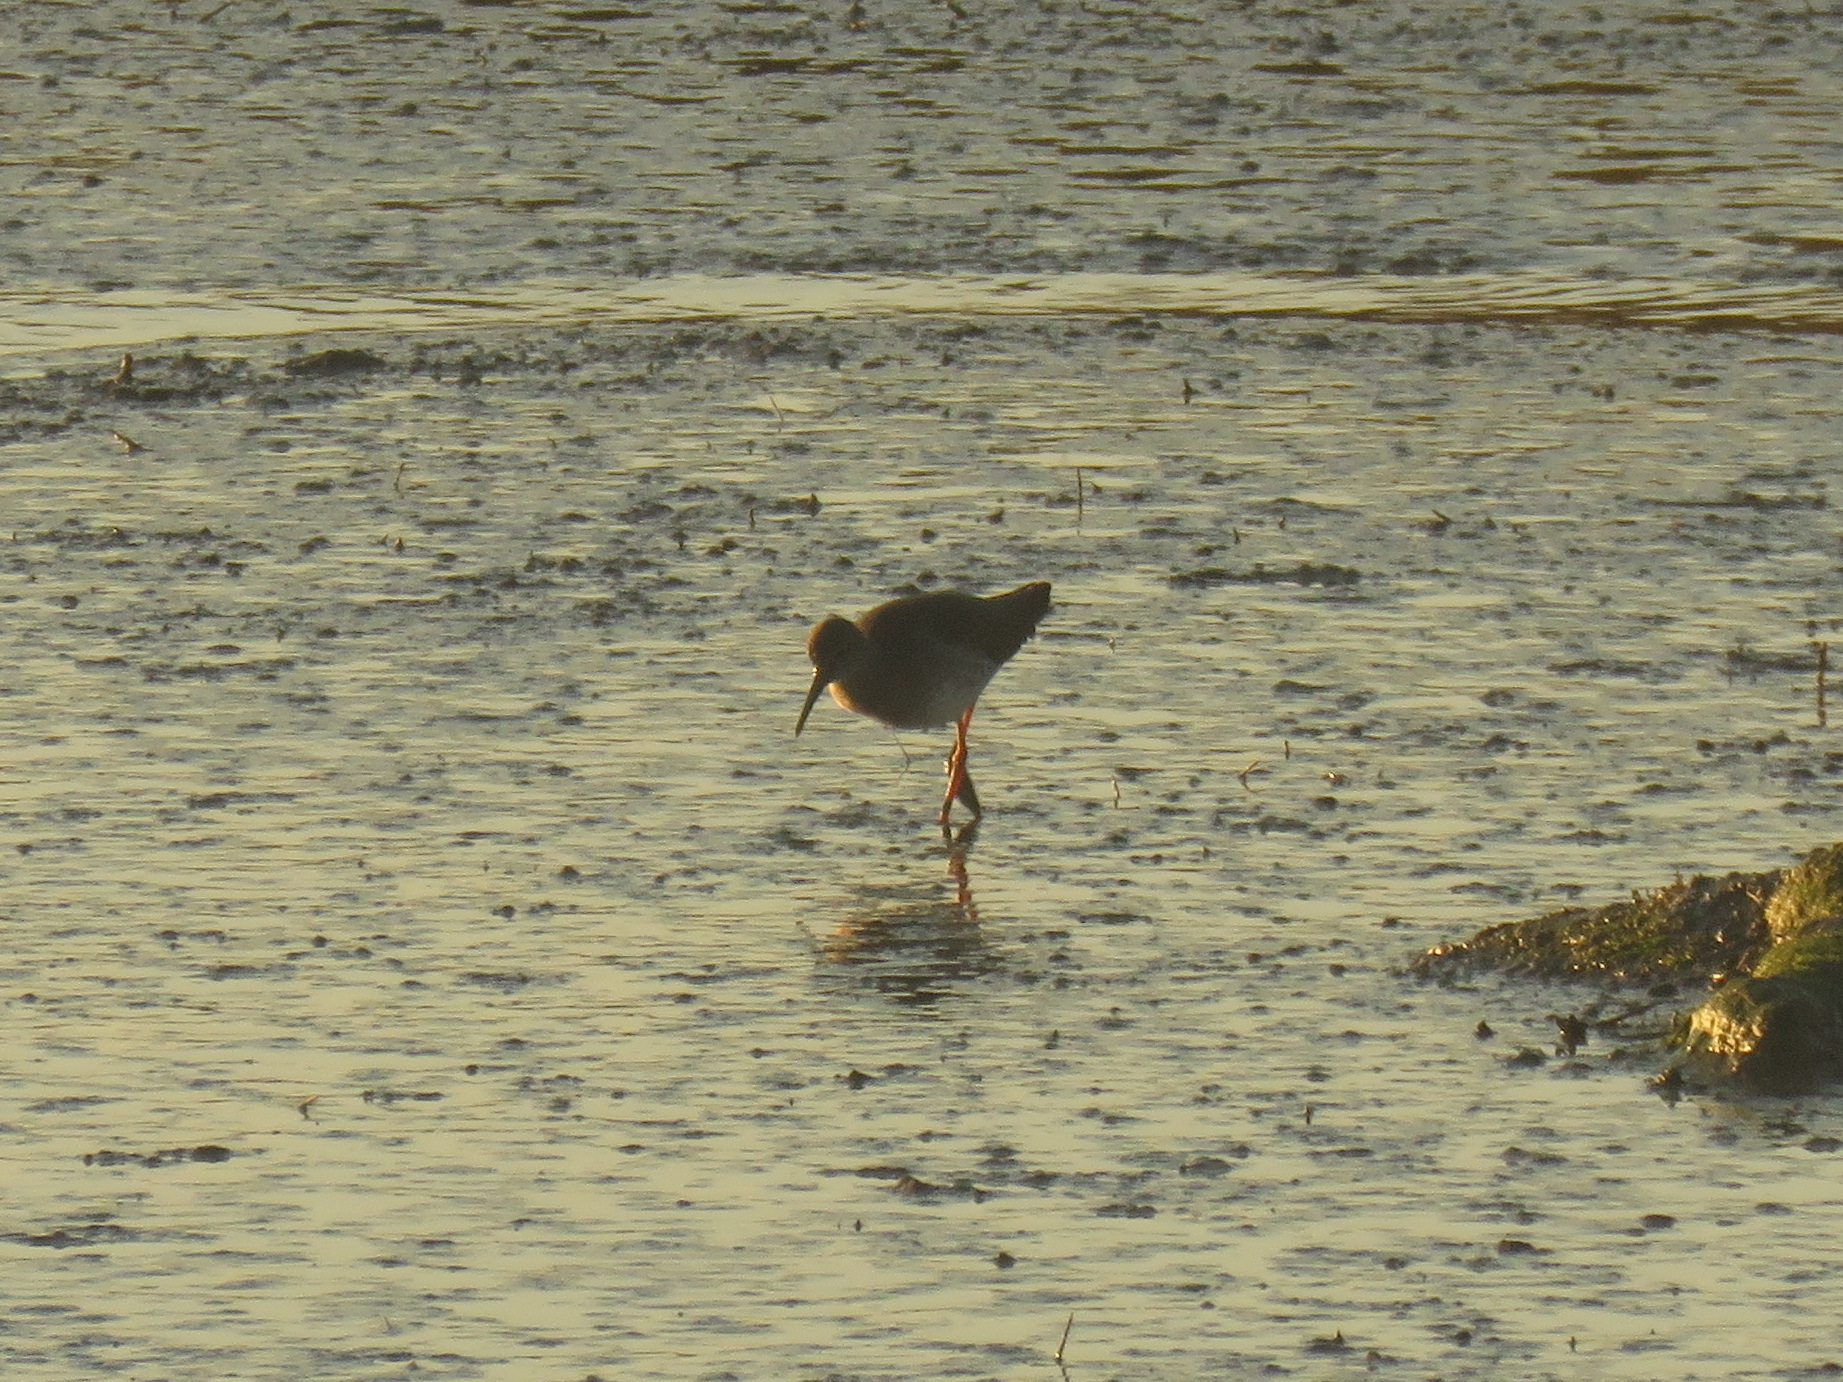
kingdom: Animalia
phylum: Chordata
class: Aves
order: Charadriiformes
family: Scolopacidae
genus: Tringa
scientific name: Tringa totanus
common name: Common redshank
